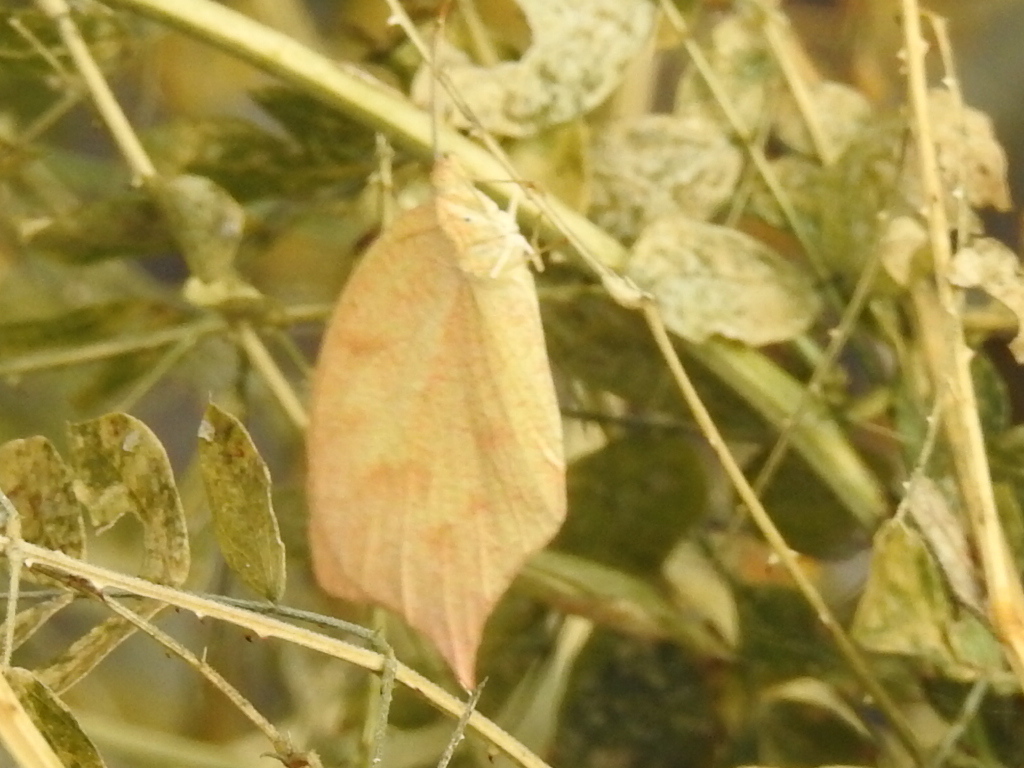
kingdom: Animalia
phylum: Arthropoda
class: Insecta
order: Lepidoptera
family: Pieridae
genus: Pyrisitia
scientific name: Pyrisitia proterpia
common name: Tailed orange
